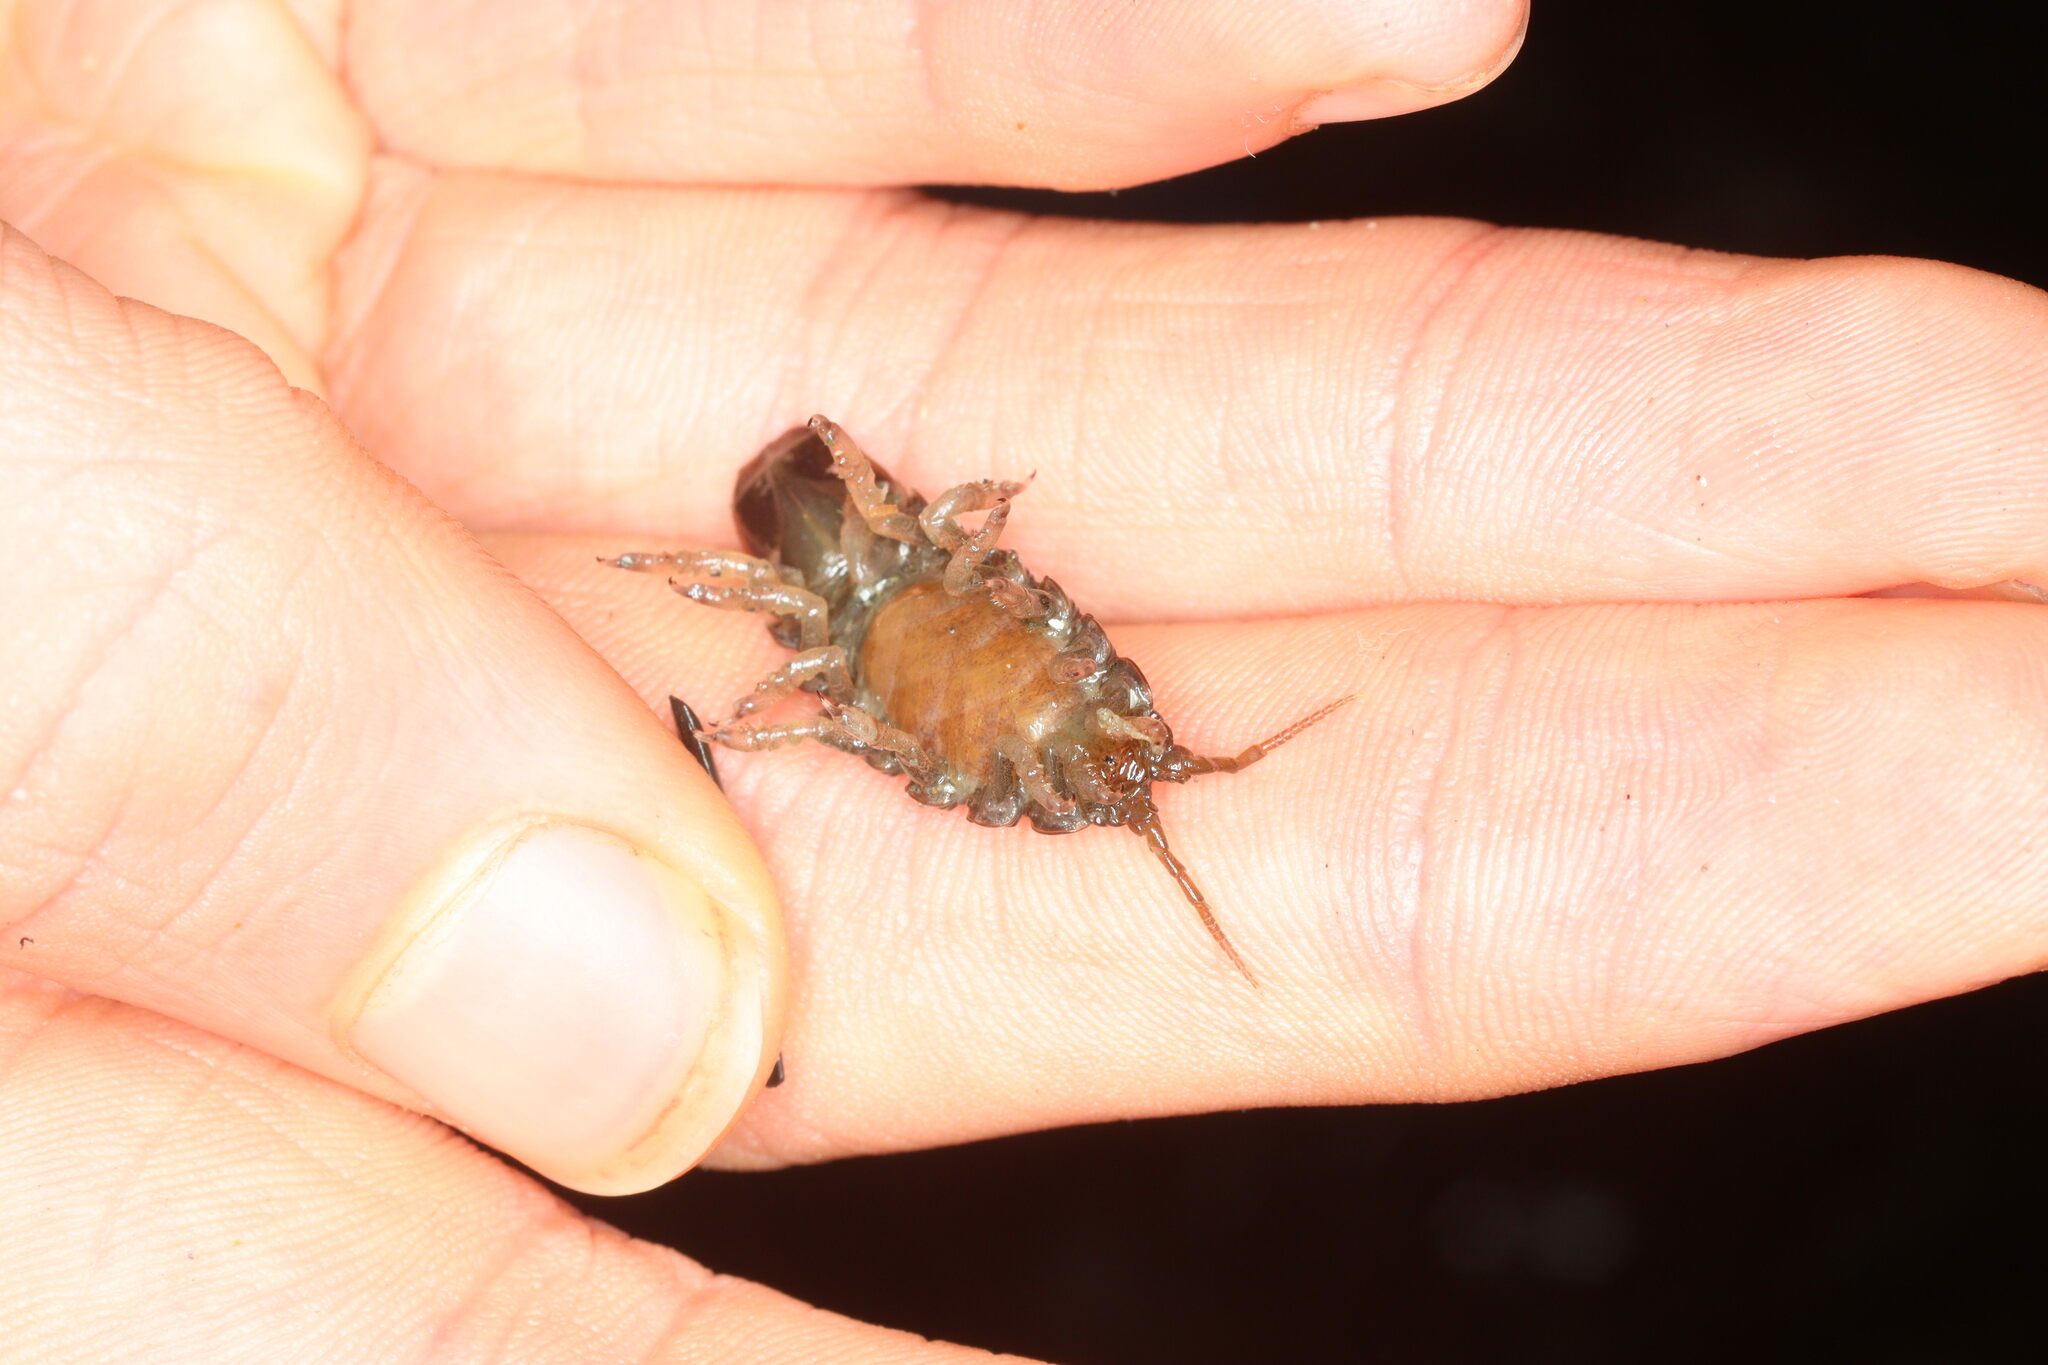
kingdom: Animalia
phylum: Arthropoda
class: Malacostraca
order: Isopoda
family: Idoteidae
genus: Pentidotea
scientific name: Pentidotea wosnesenskii
